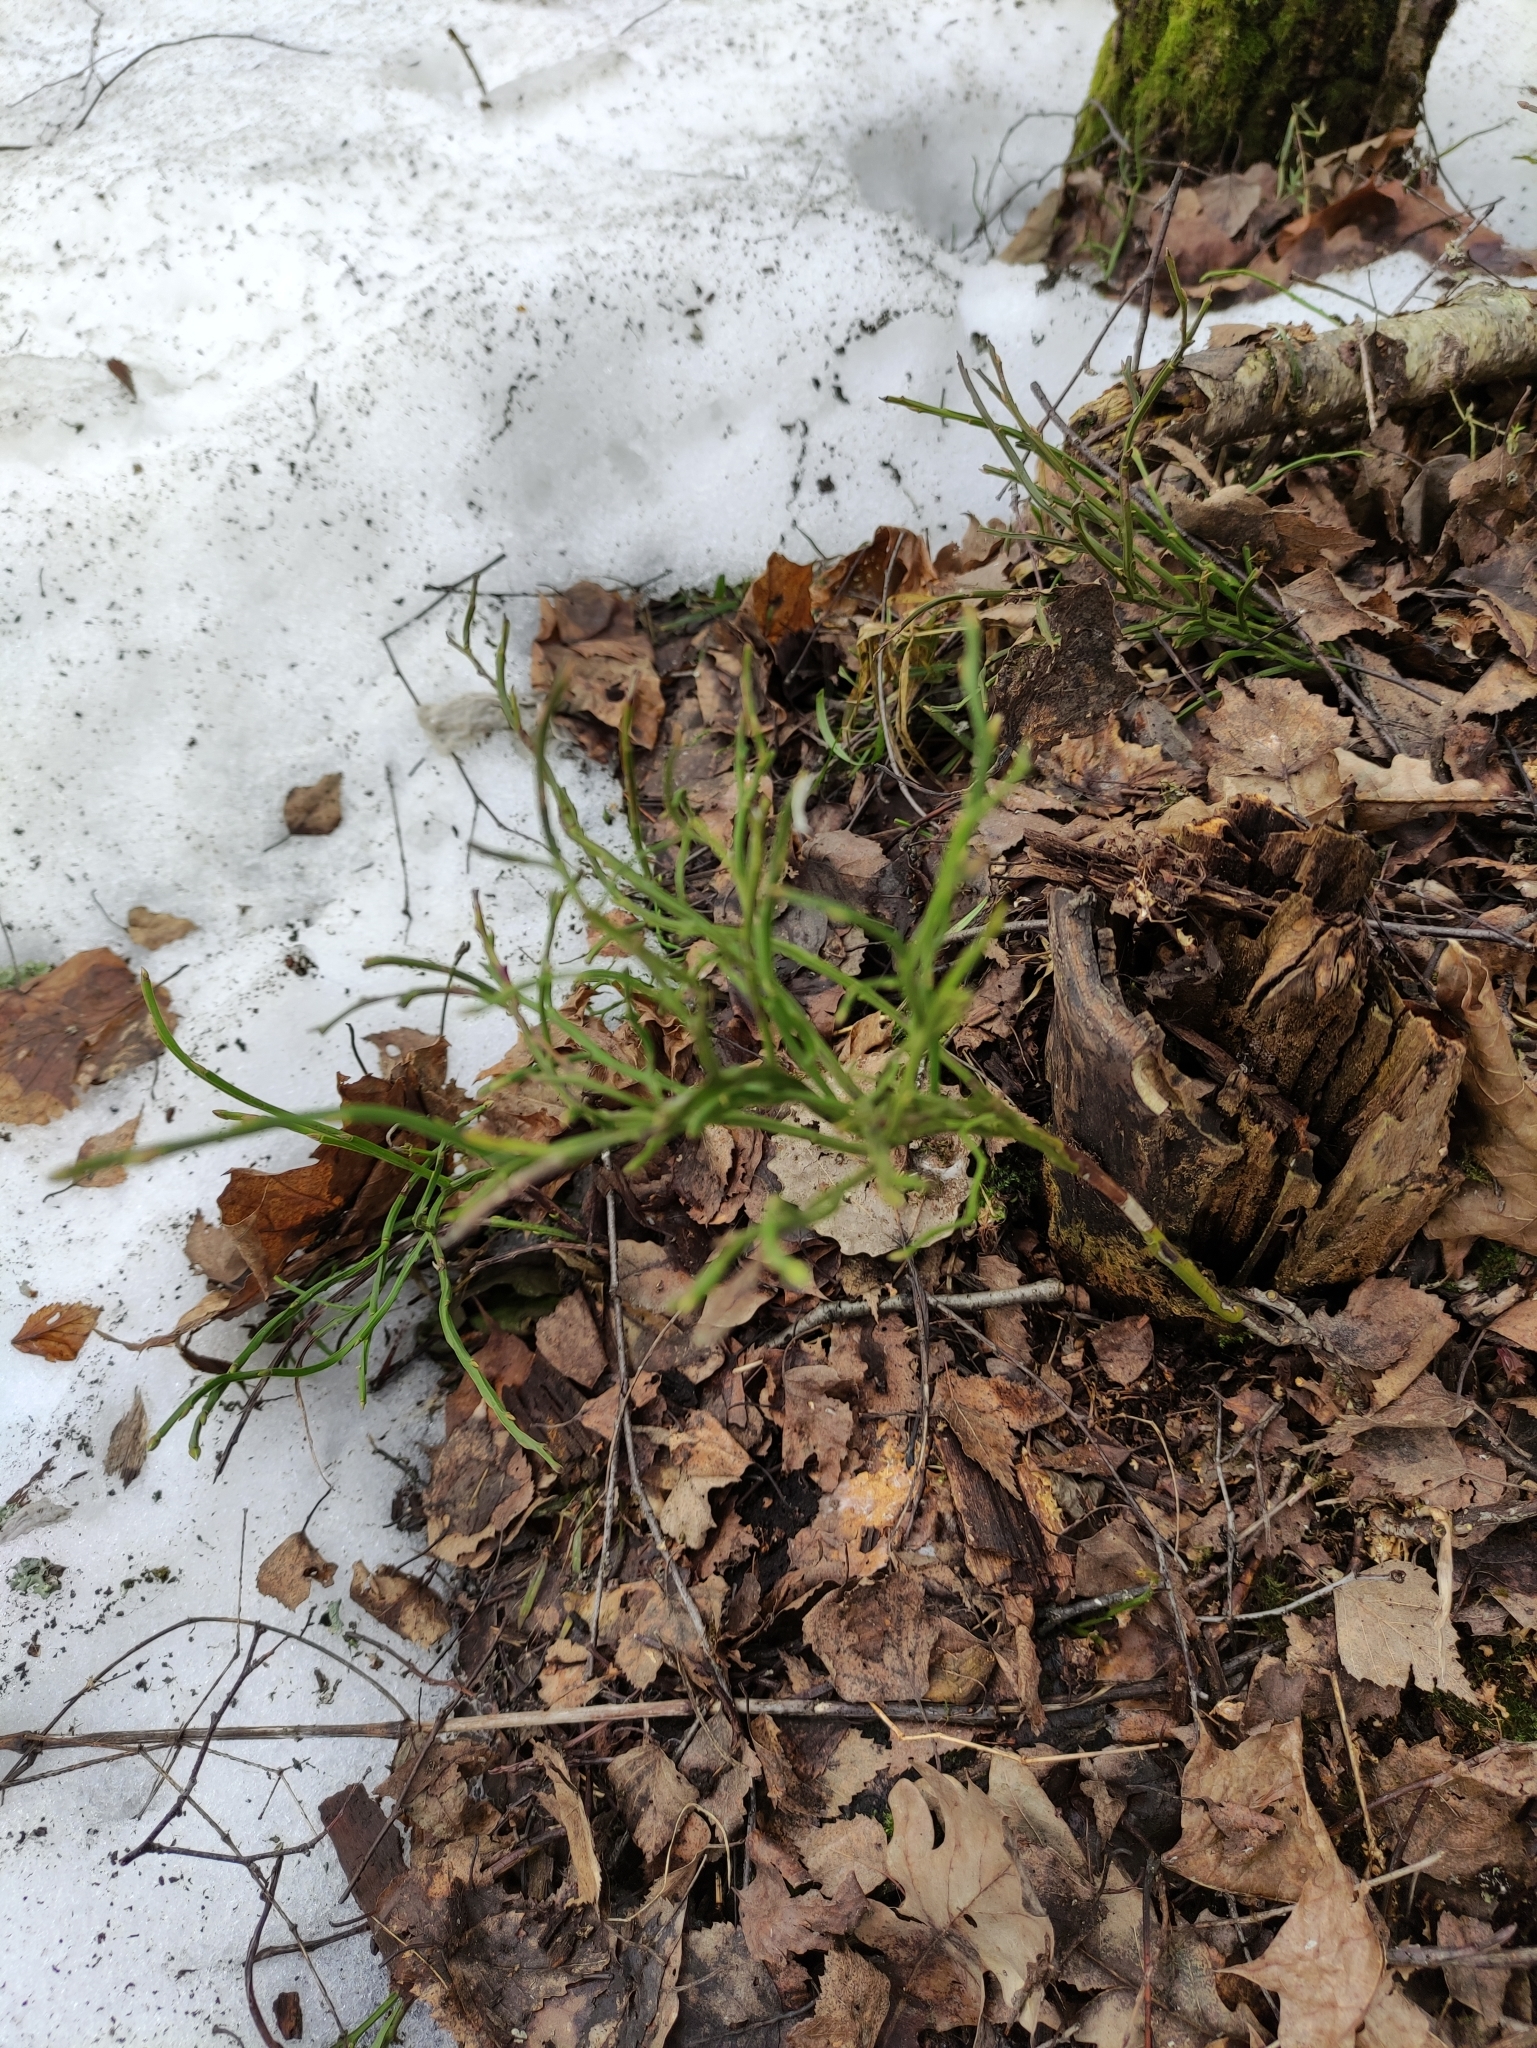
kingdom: Plantae
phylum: Tracheophyta
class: Magnoliopsida
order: Ericales
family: Ericaceae
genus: Vaccinium
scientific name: Vaccinium myrtillus
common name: Bilberry
